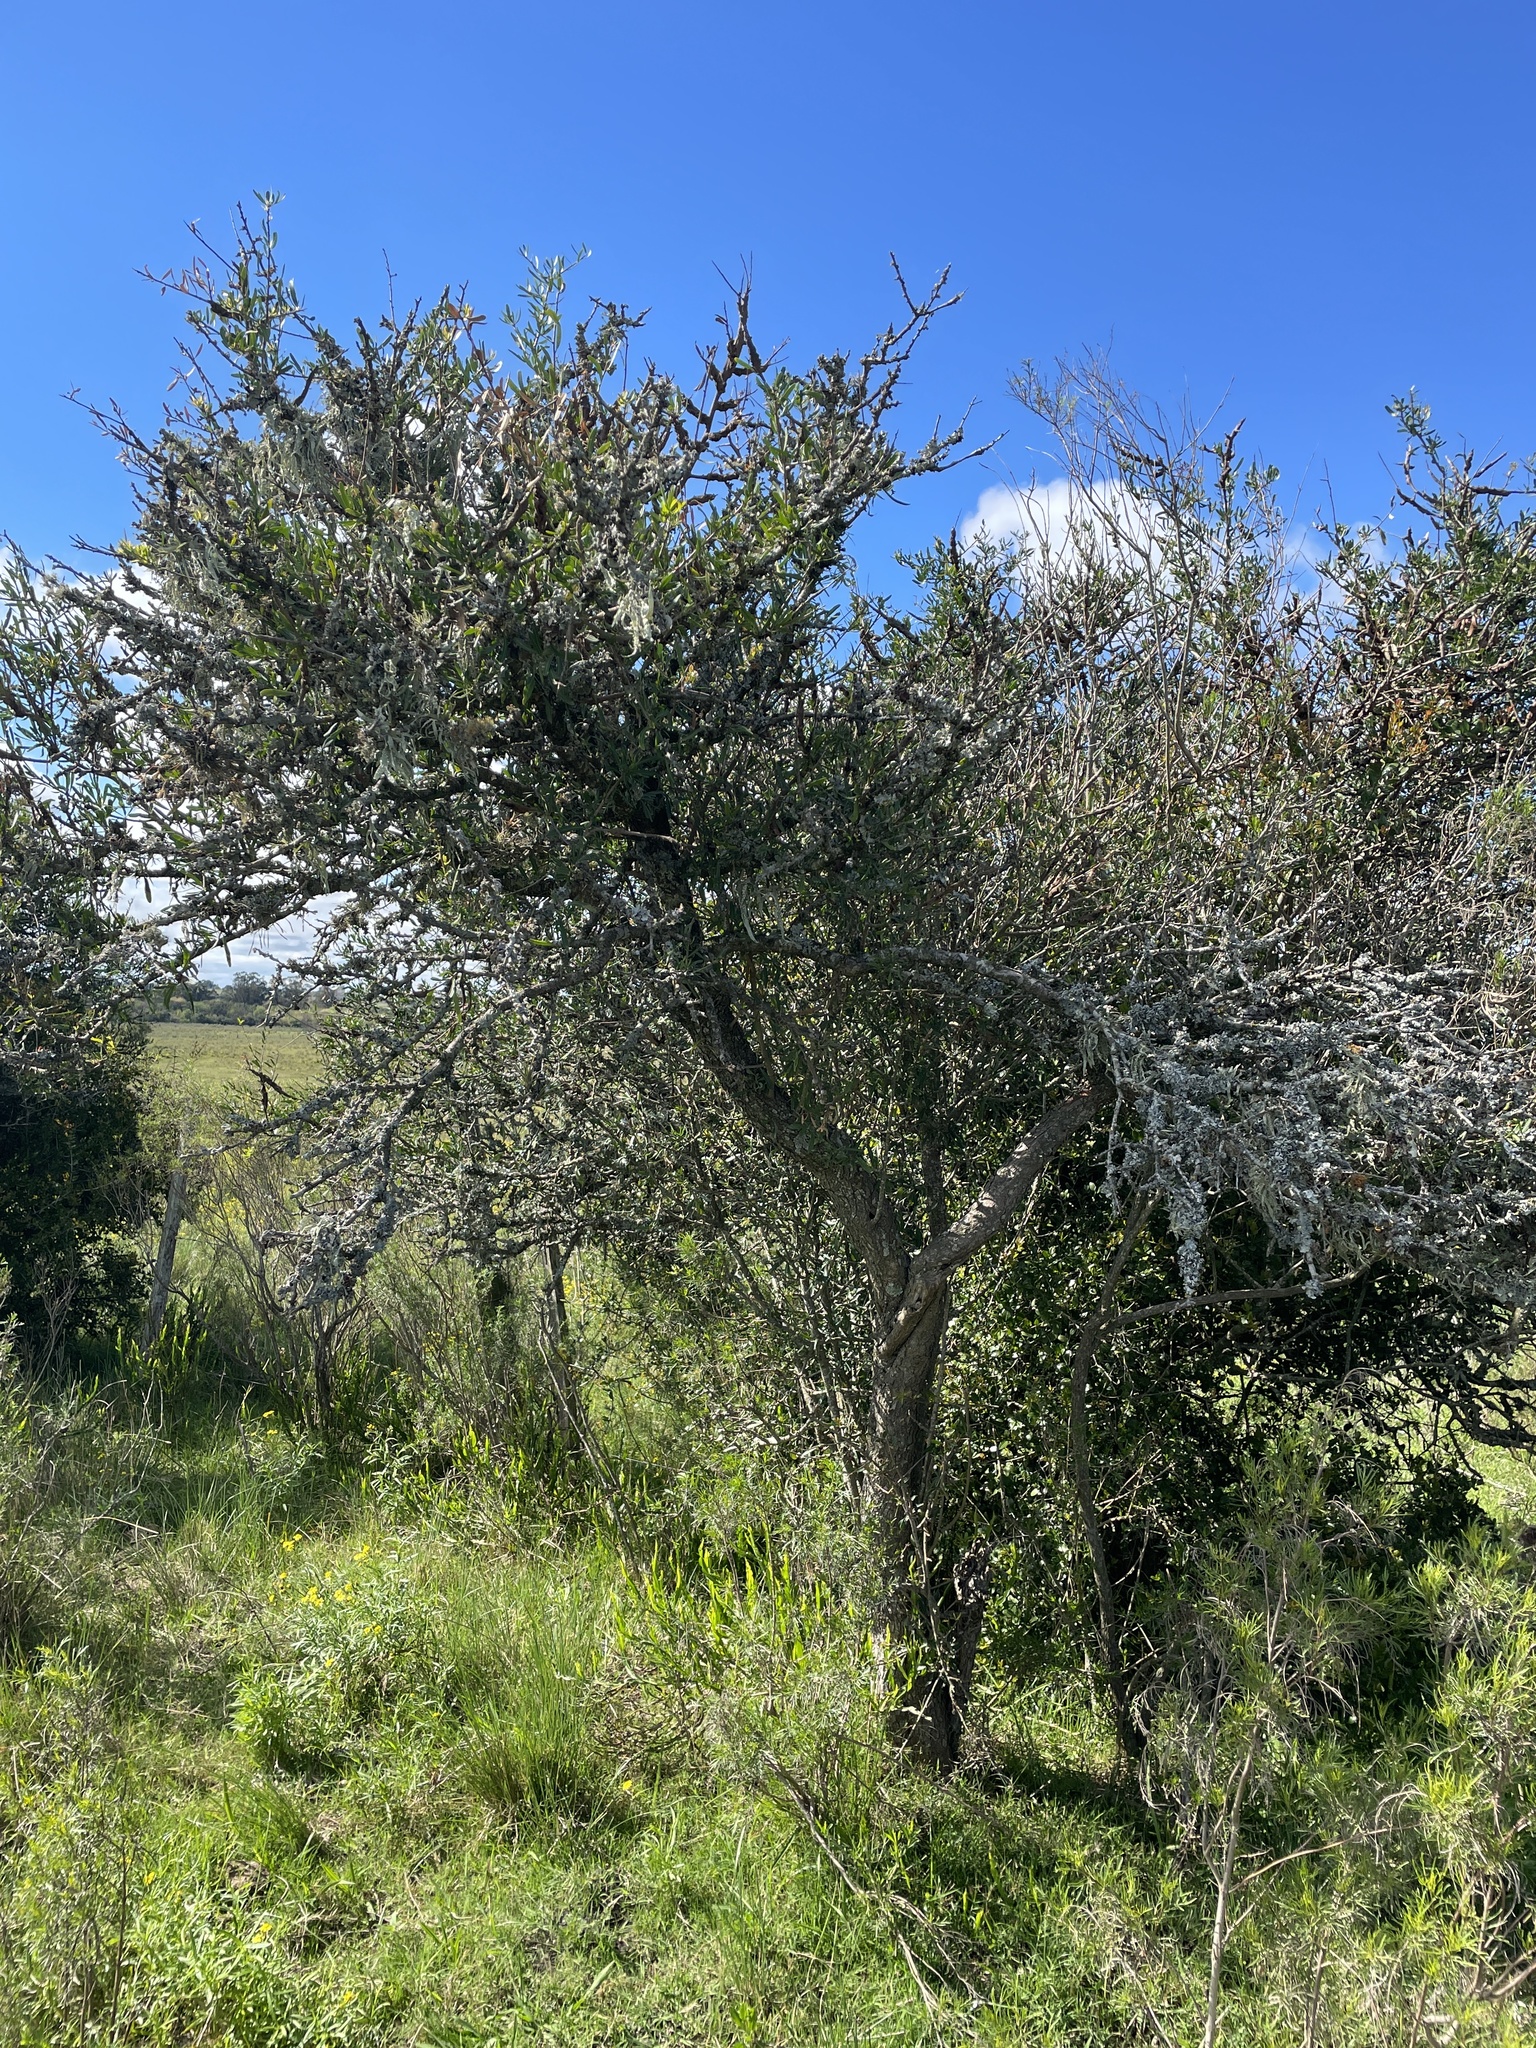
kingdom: Plantae
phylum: Tracheophyta
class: Magnoliopsida
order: Sapindales
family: Anacardiaceae
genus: Schinus
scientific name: Schinus longifolia
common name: Longleaf peppertree
